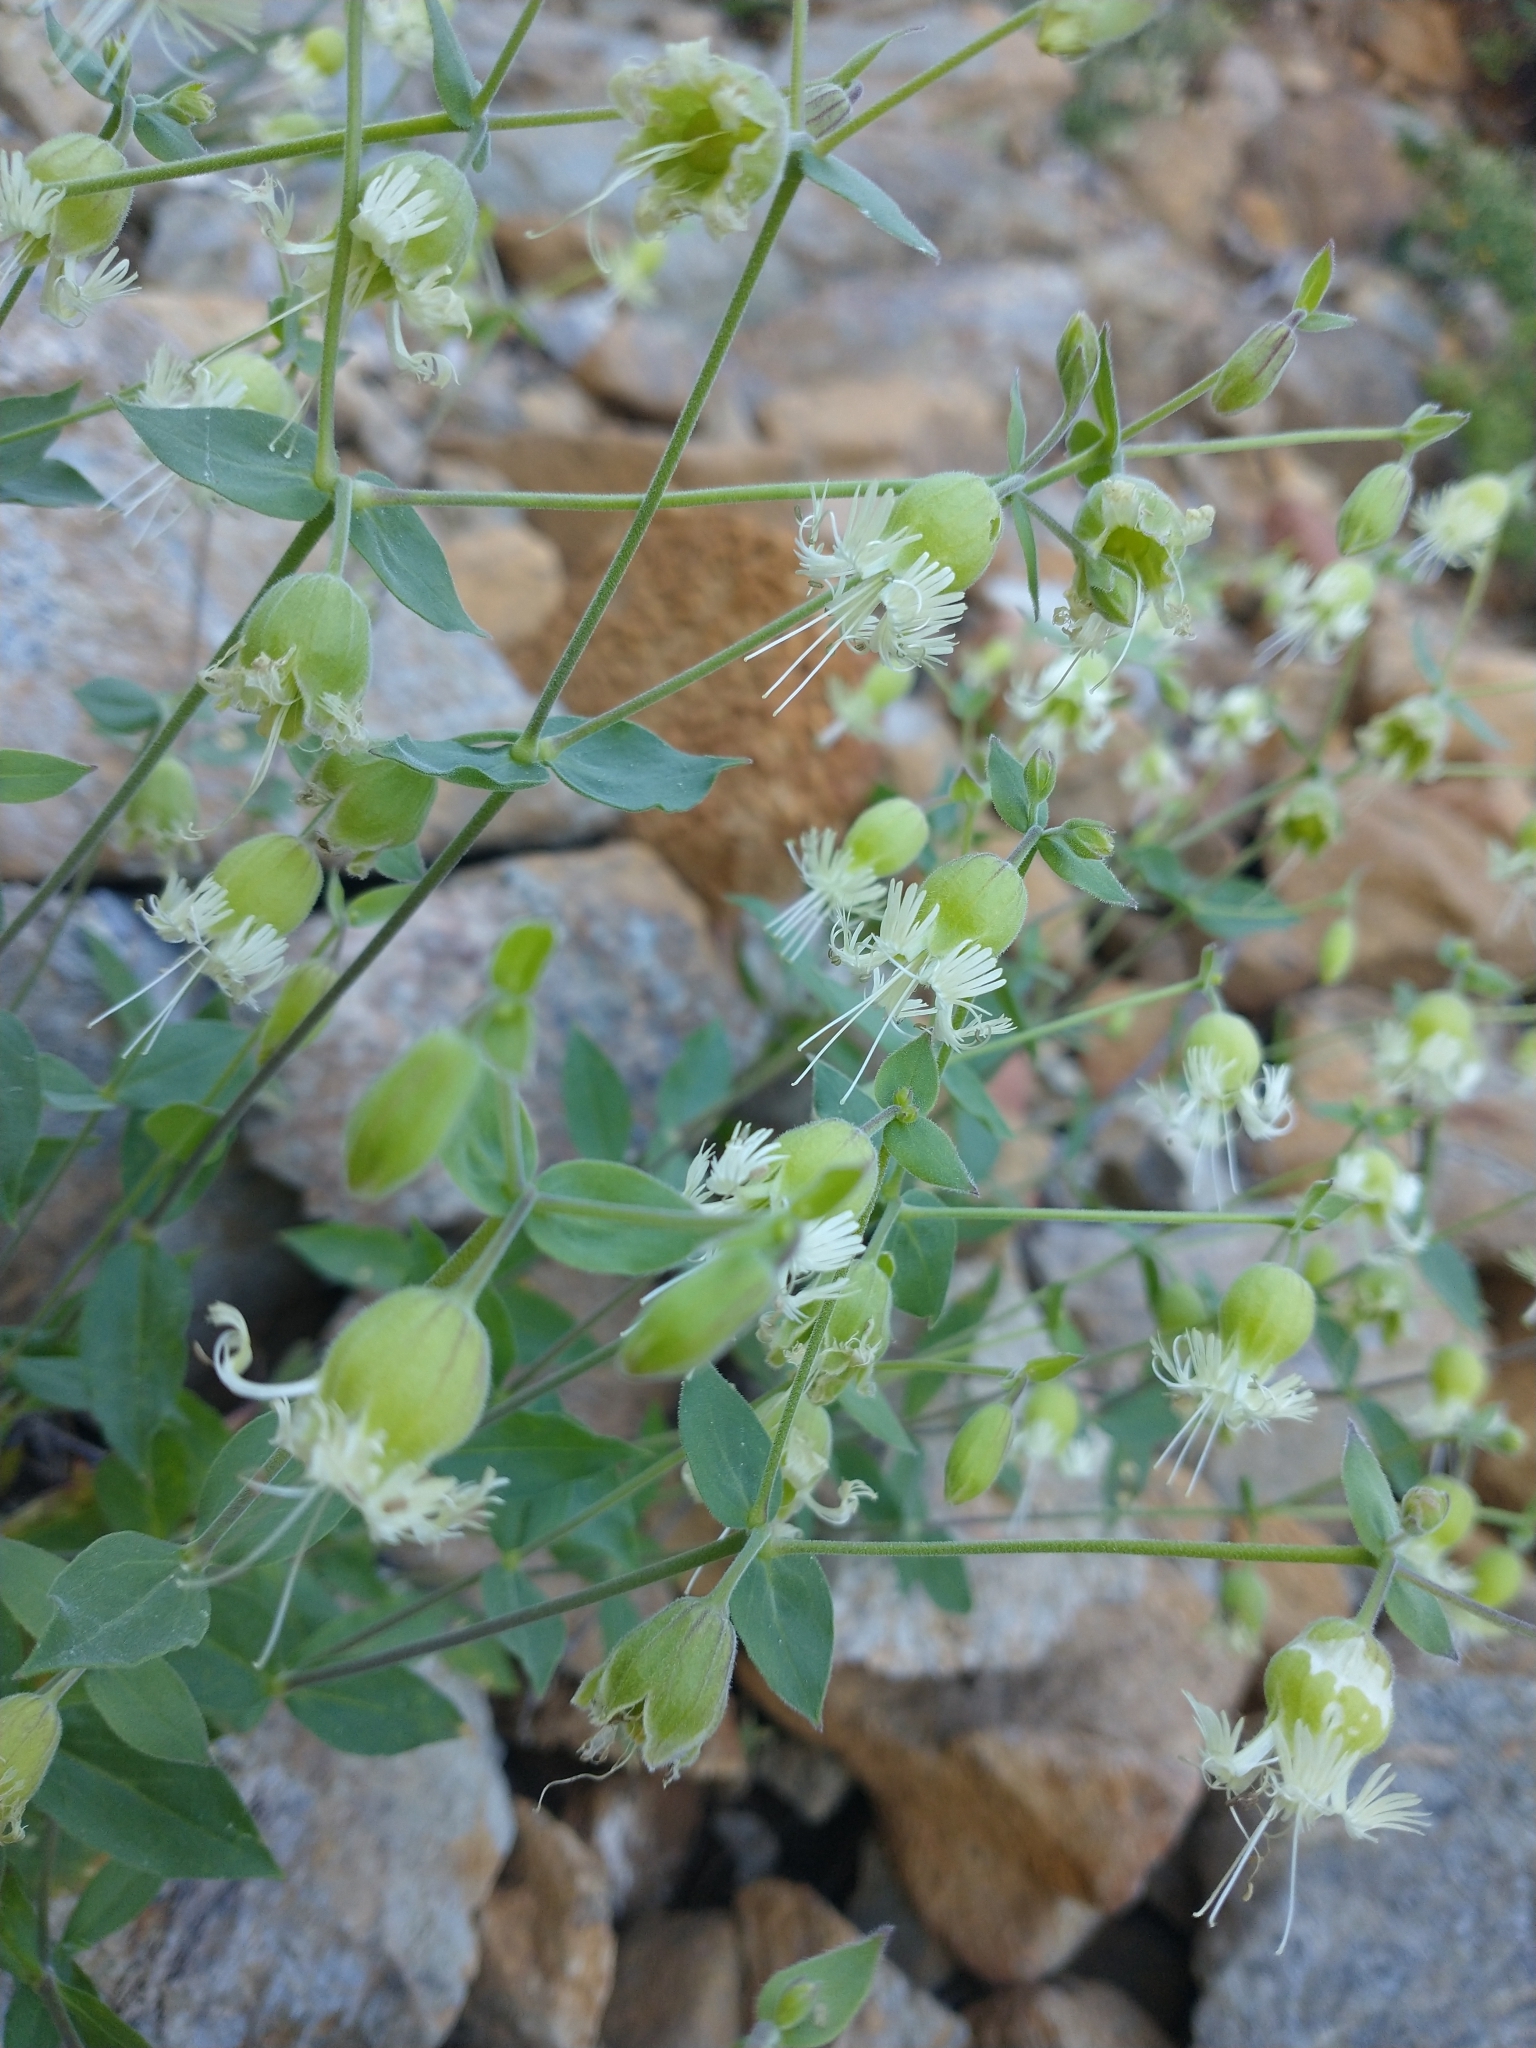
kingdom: Plantae
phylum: Tracheophyta
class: Magnoliopsida
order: Caryophyllales
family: Caryophyllaceae
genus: Silene
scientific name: Silene
